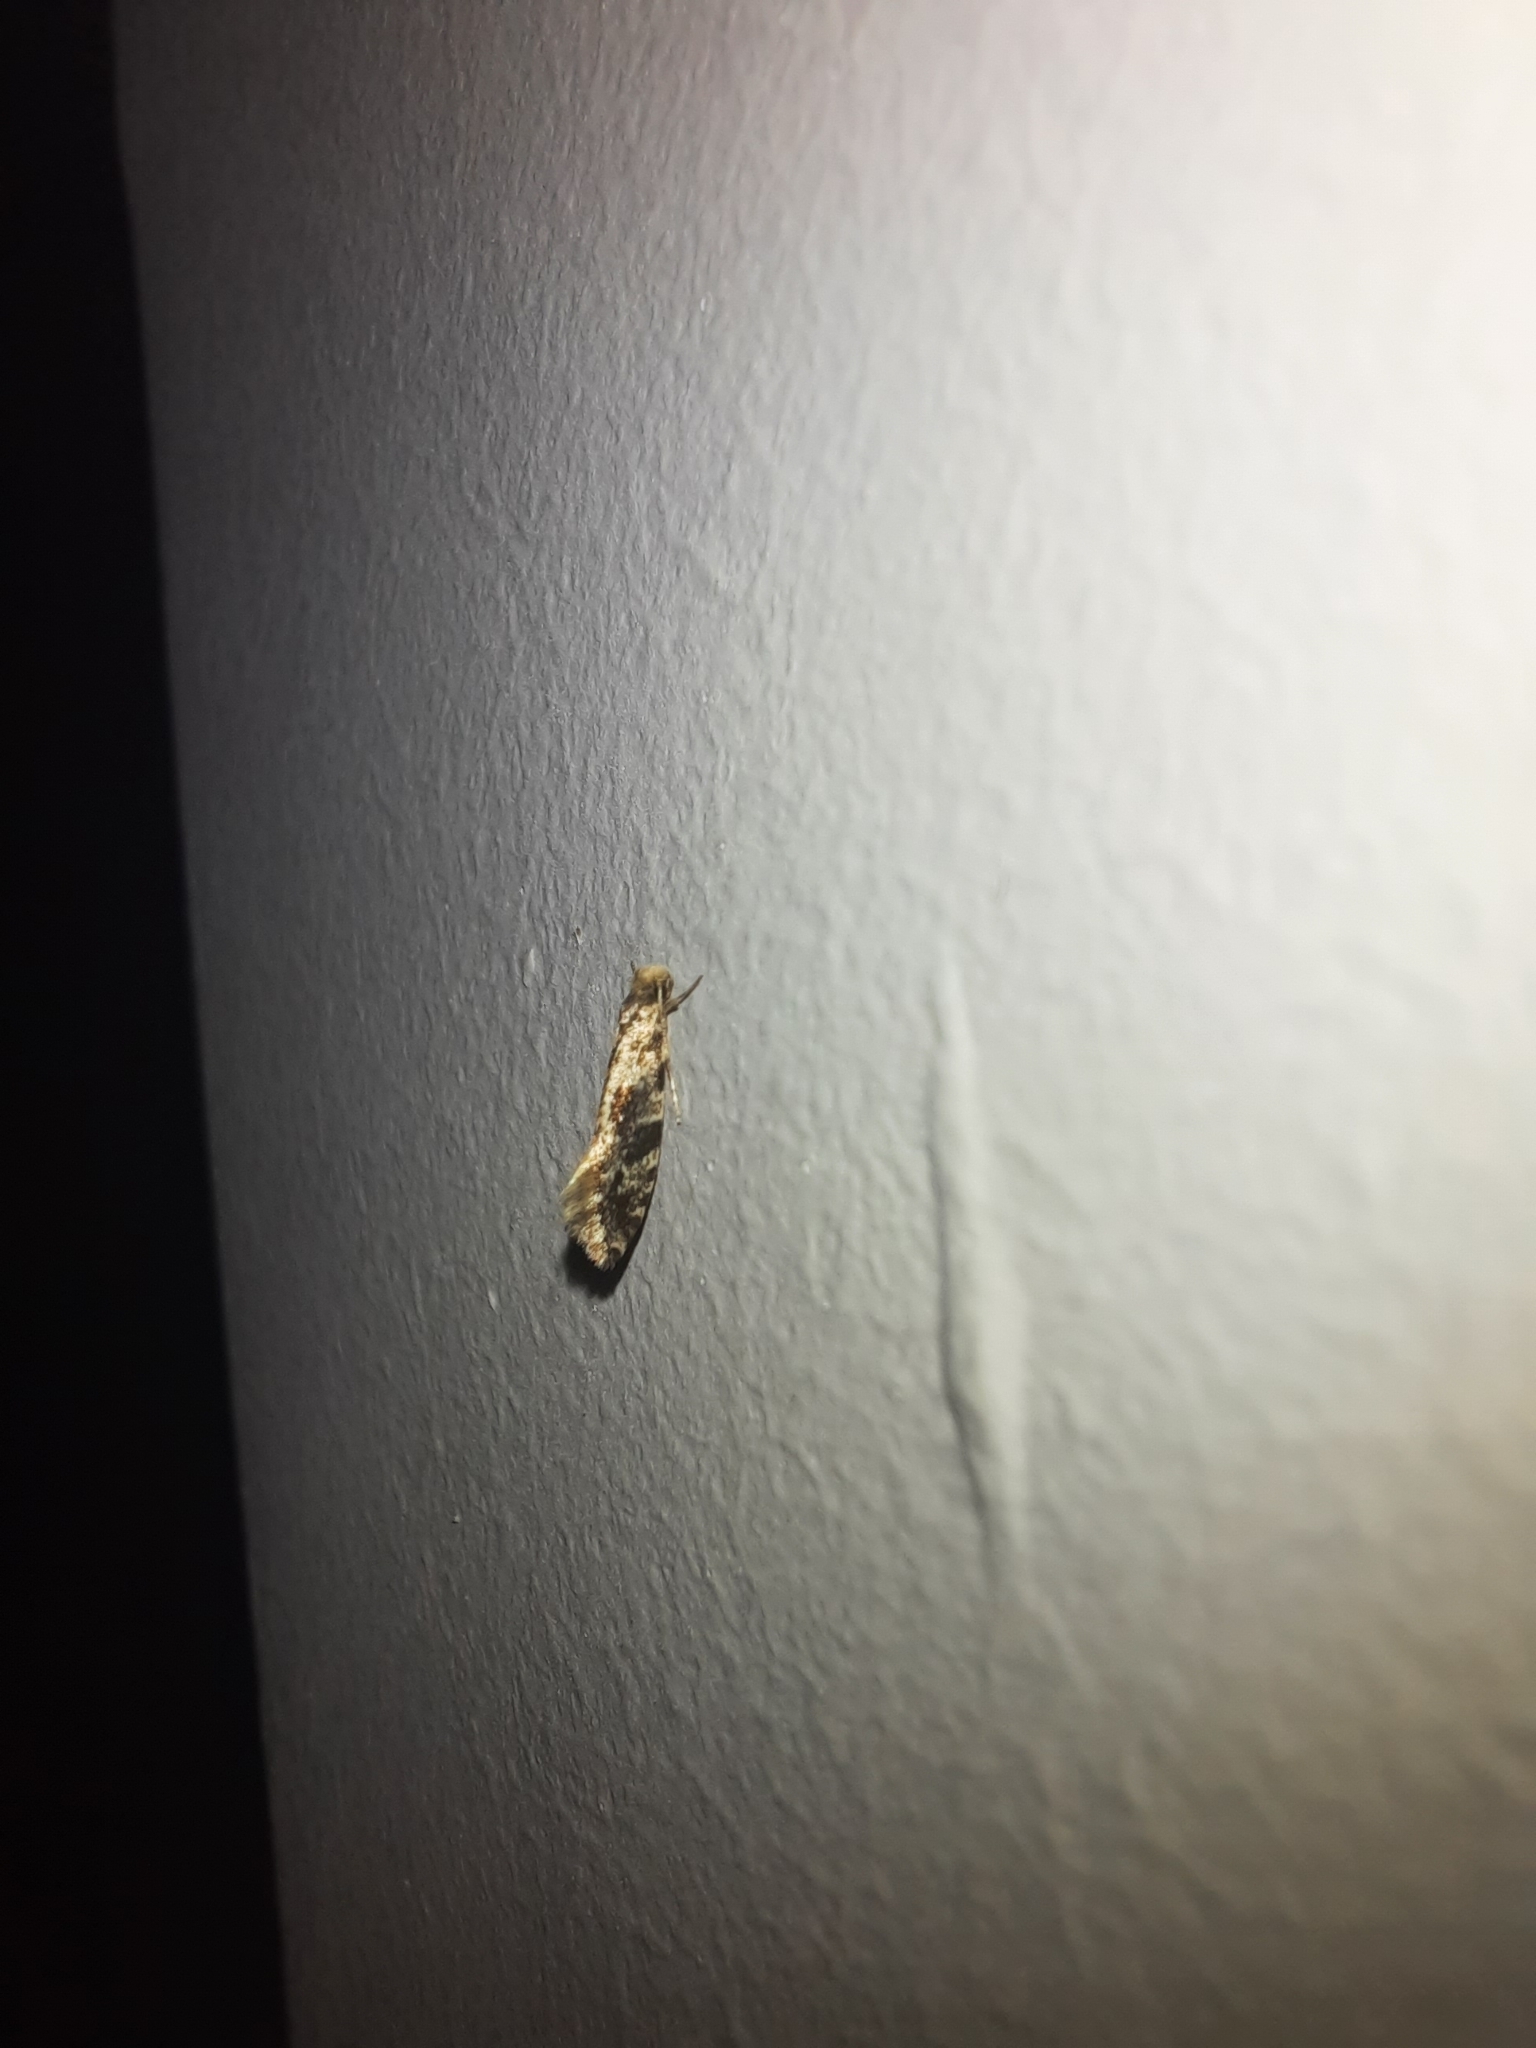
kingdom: Animalia
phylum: Arthropoda
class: Insecta
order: Lepidoptera
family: Tineidae
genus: Nemapogon
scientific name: Nemapogon granella
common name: European grain moth
